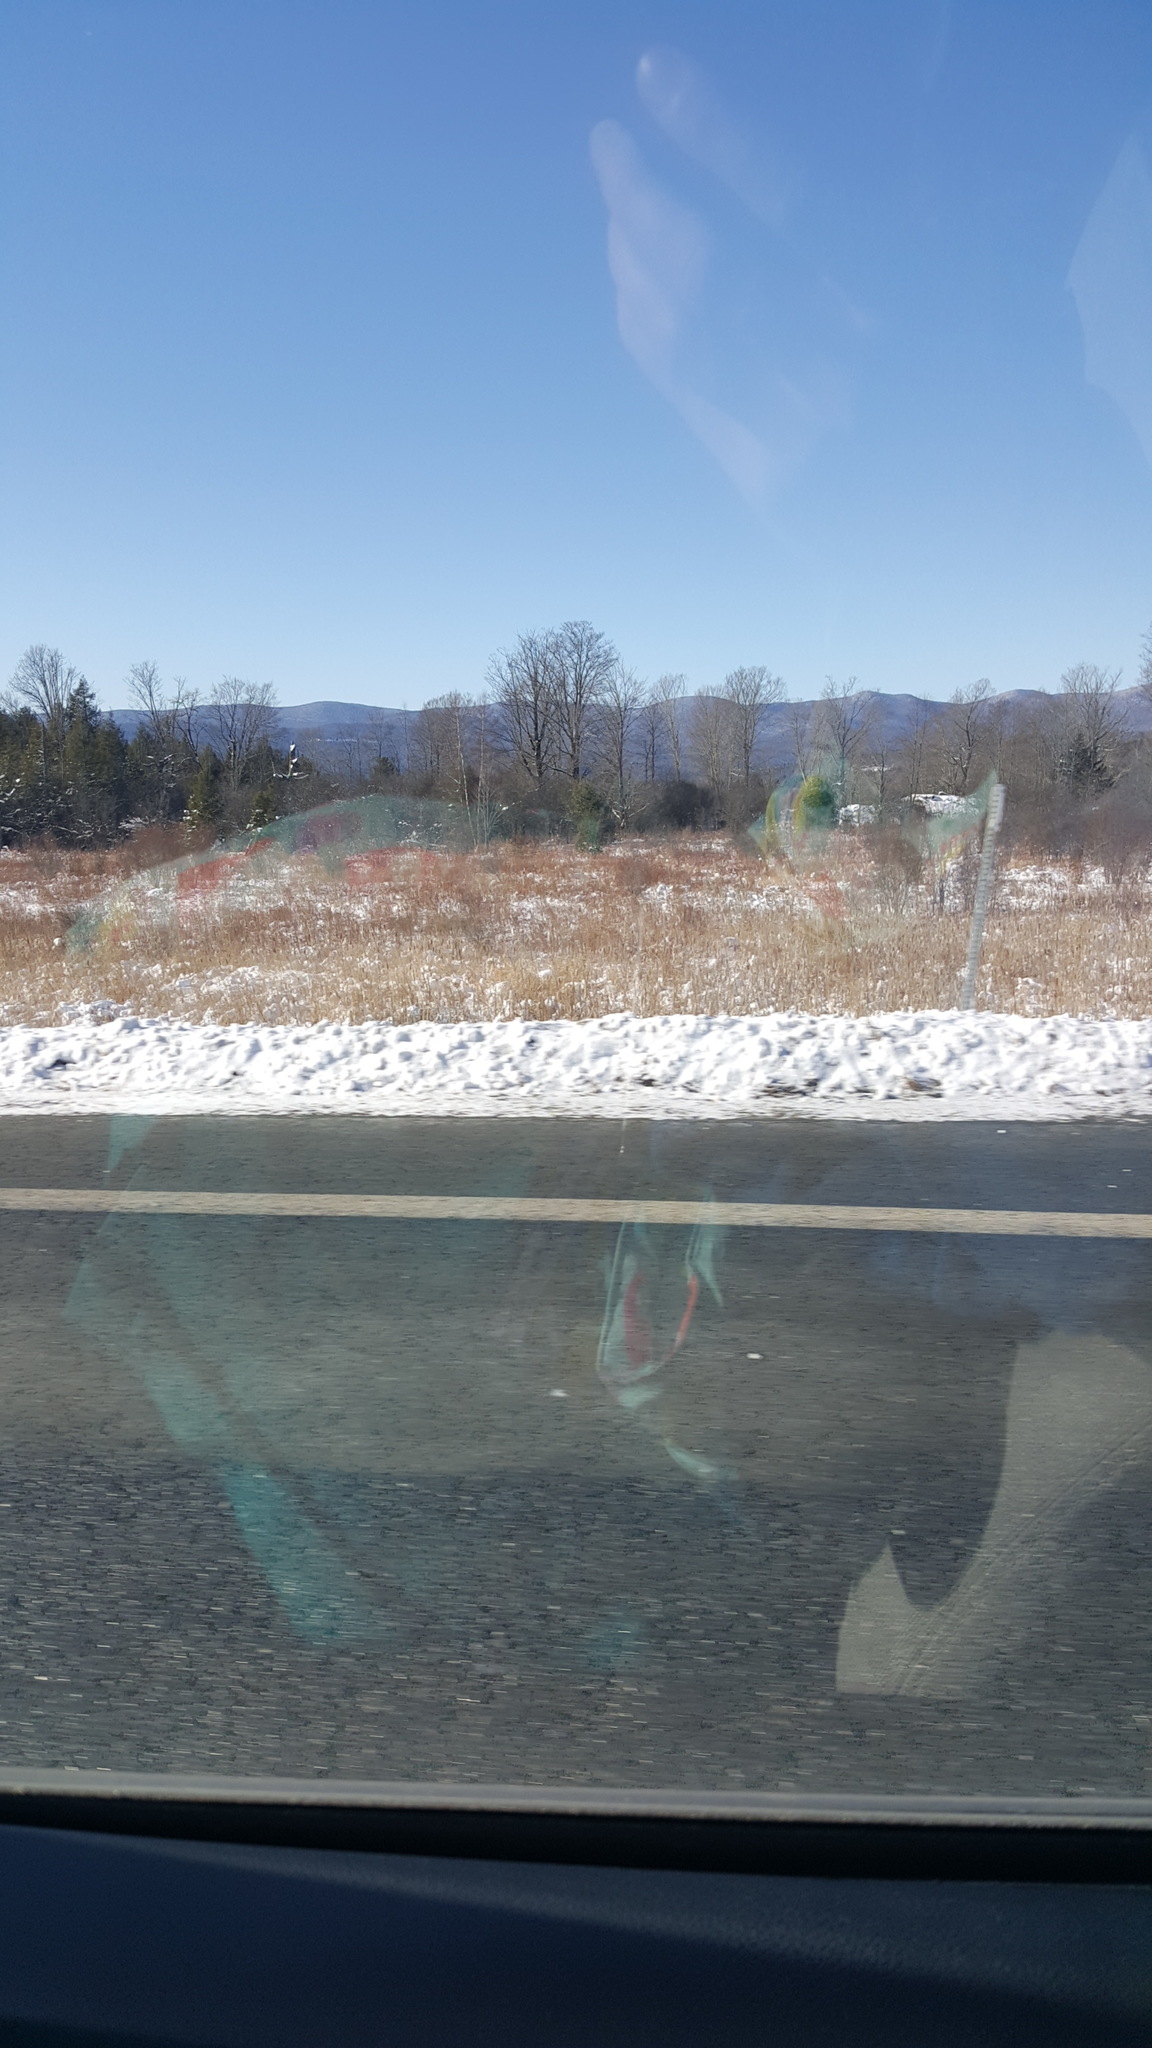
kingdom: Plantae
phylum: Tracheophyta
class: Liliopsida
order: Poales
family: Typhaceae
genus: Typha
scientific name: Typha
